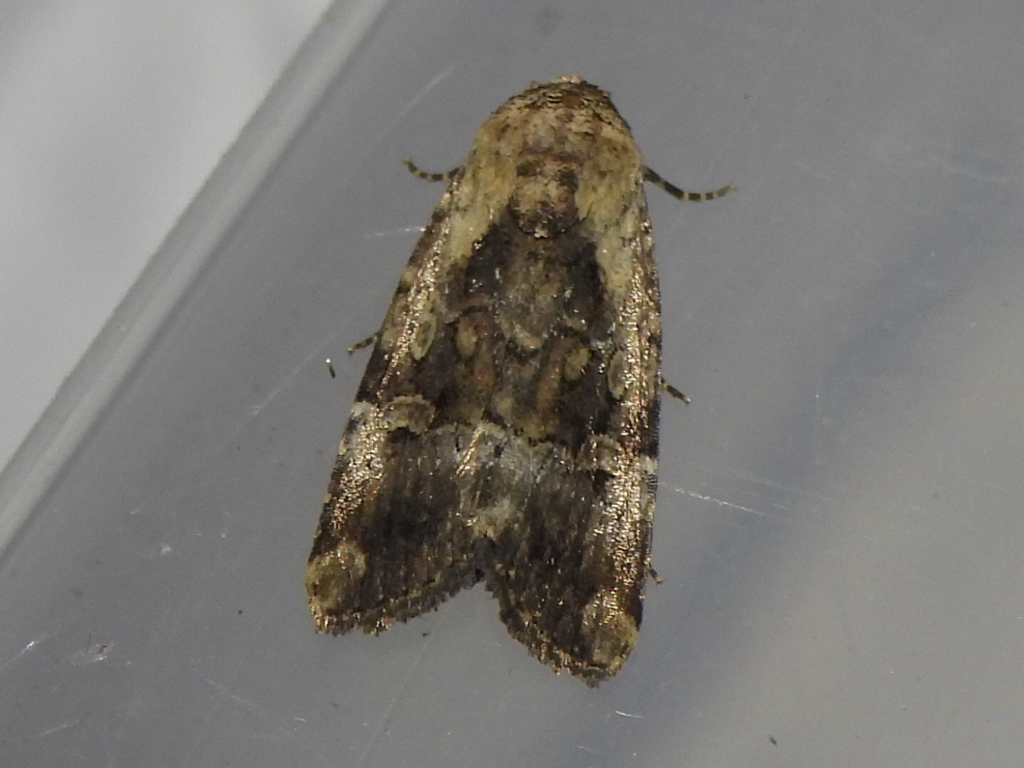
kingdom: Animalia
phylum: Arthropoda
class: Insecta
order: Lepidoptera
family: Noctuidae
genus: Elaphria
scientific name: Elaphria chalcedonia
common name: Chalcedony midget
